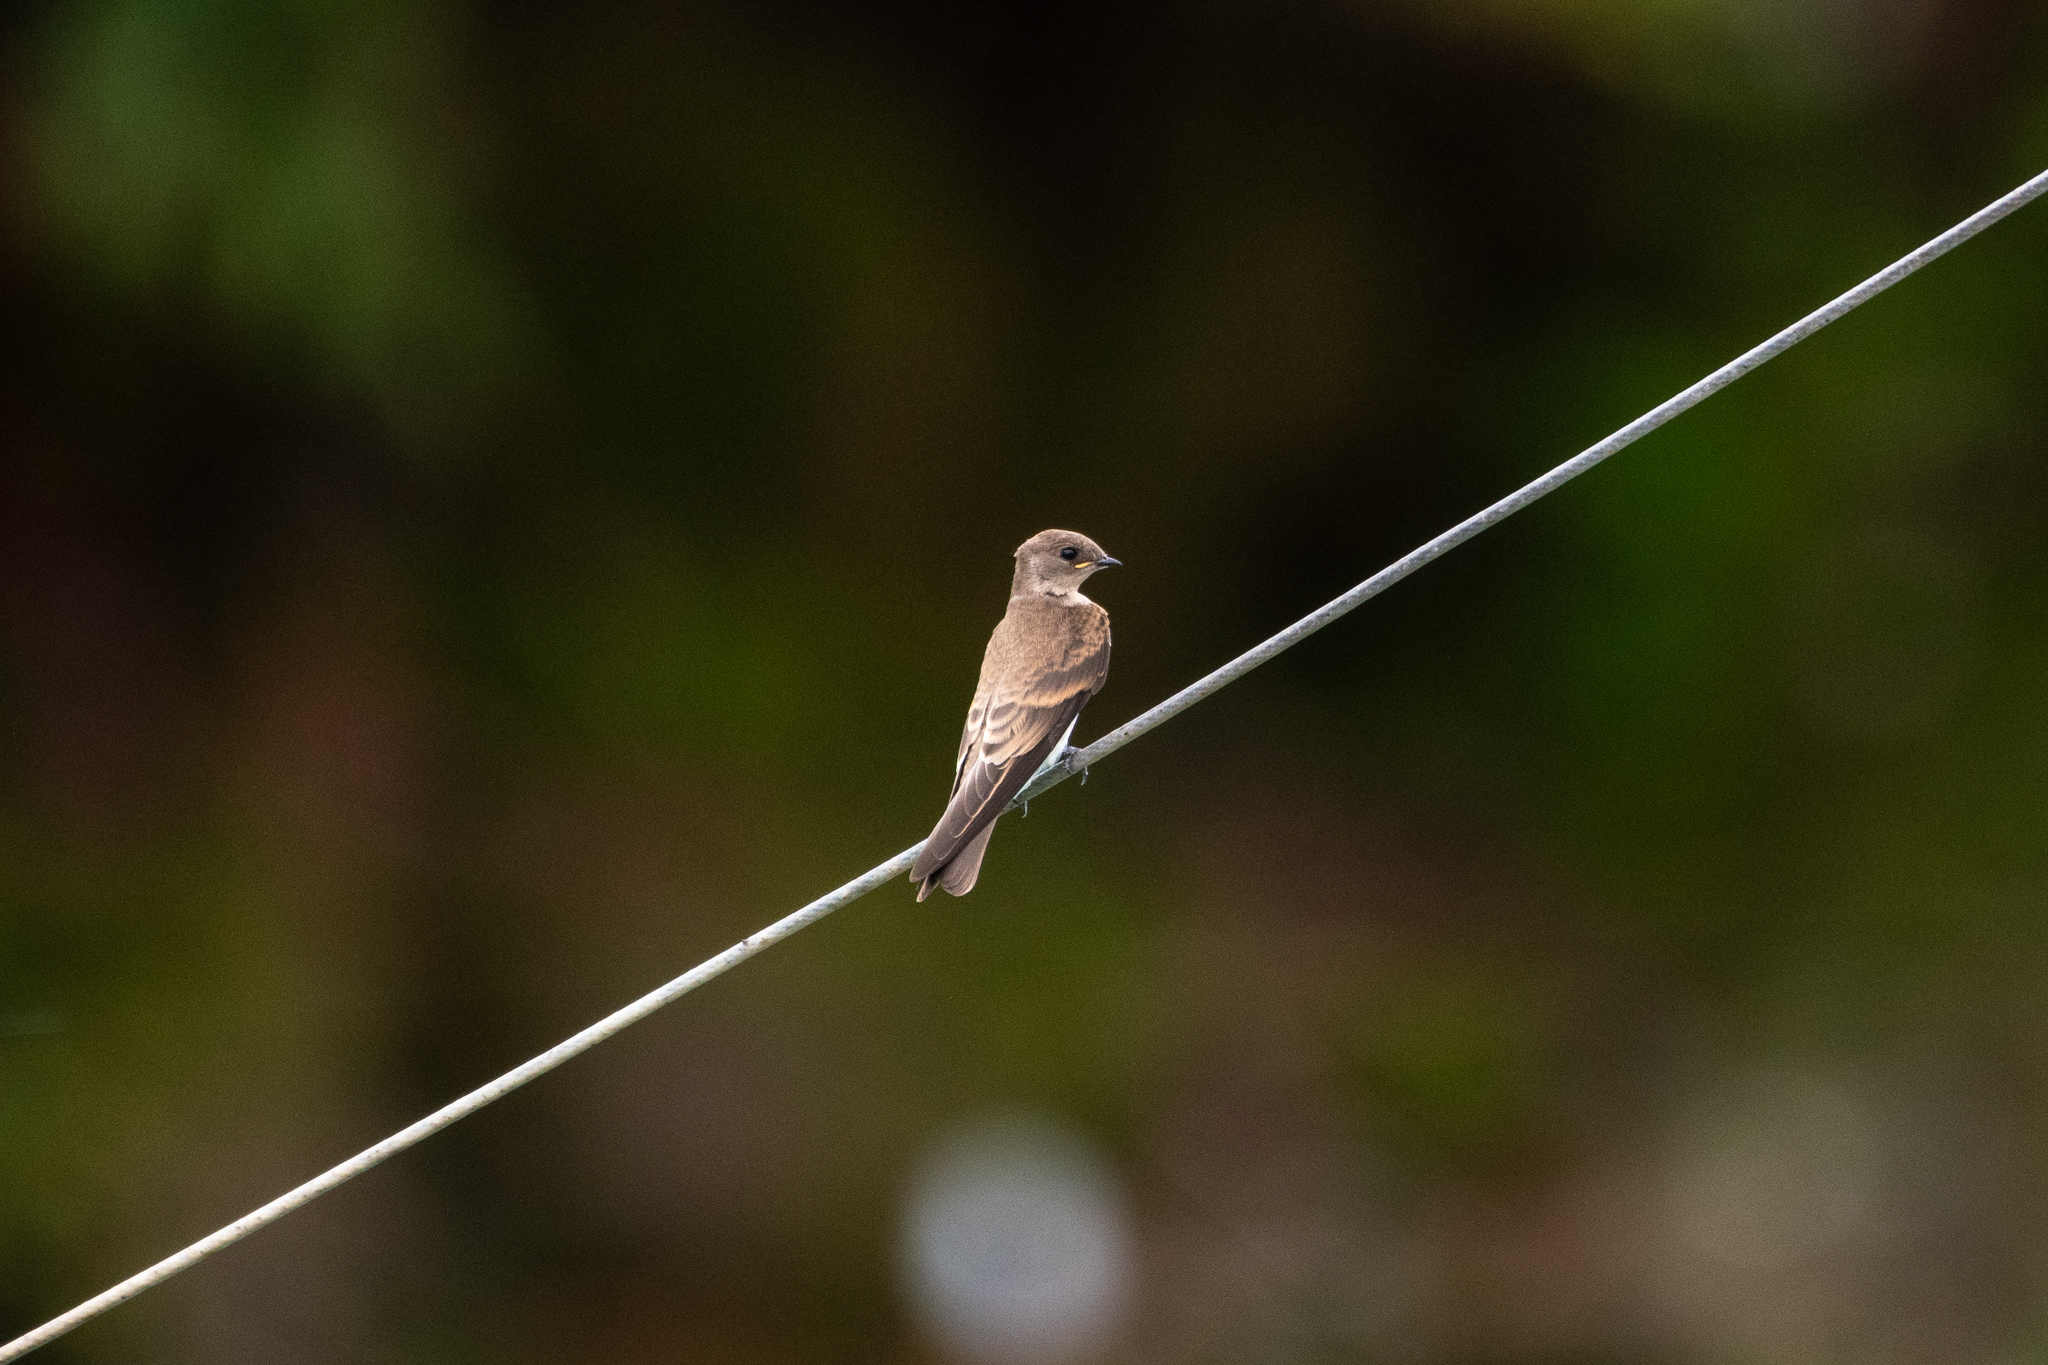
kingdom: Animalia
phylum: Chordata
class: Aves
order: Passeriformes
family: Hirundinidae
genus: Stelgidopteryx
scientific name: Stelgidopteryx serripennis
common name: Northern rough-winged swallow
